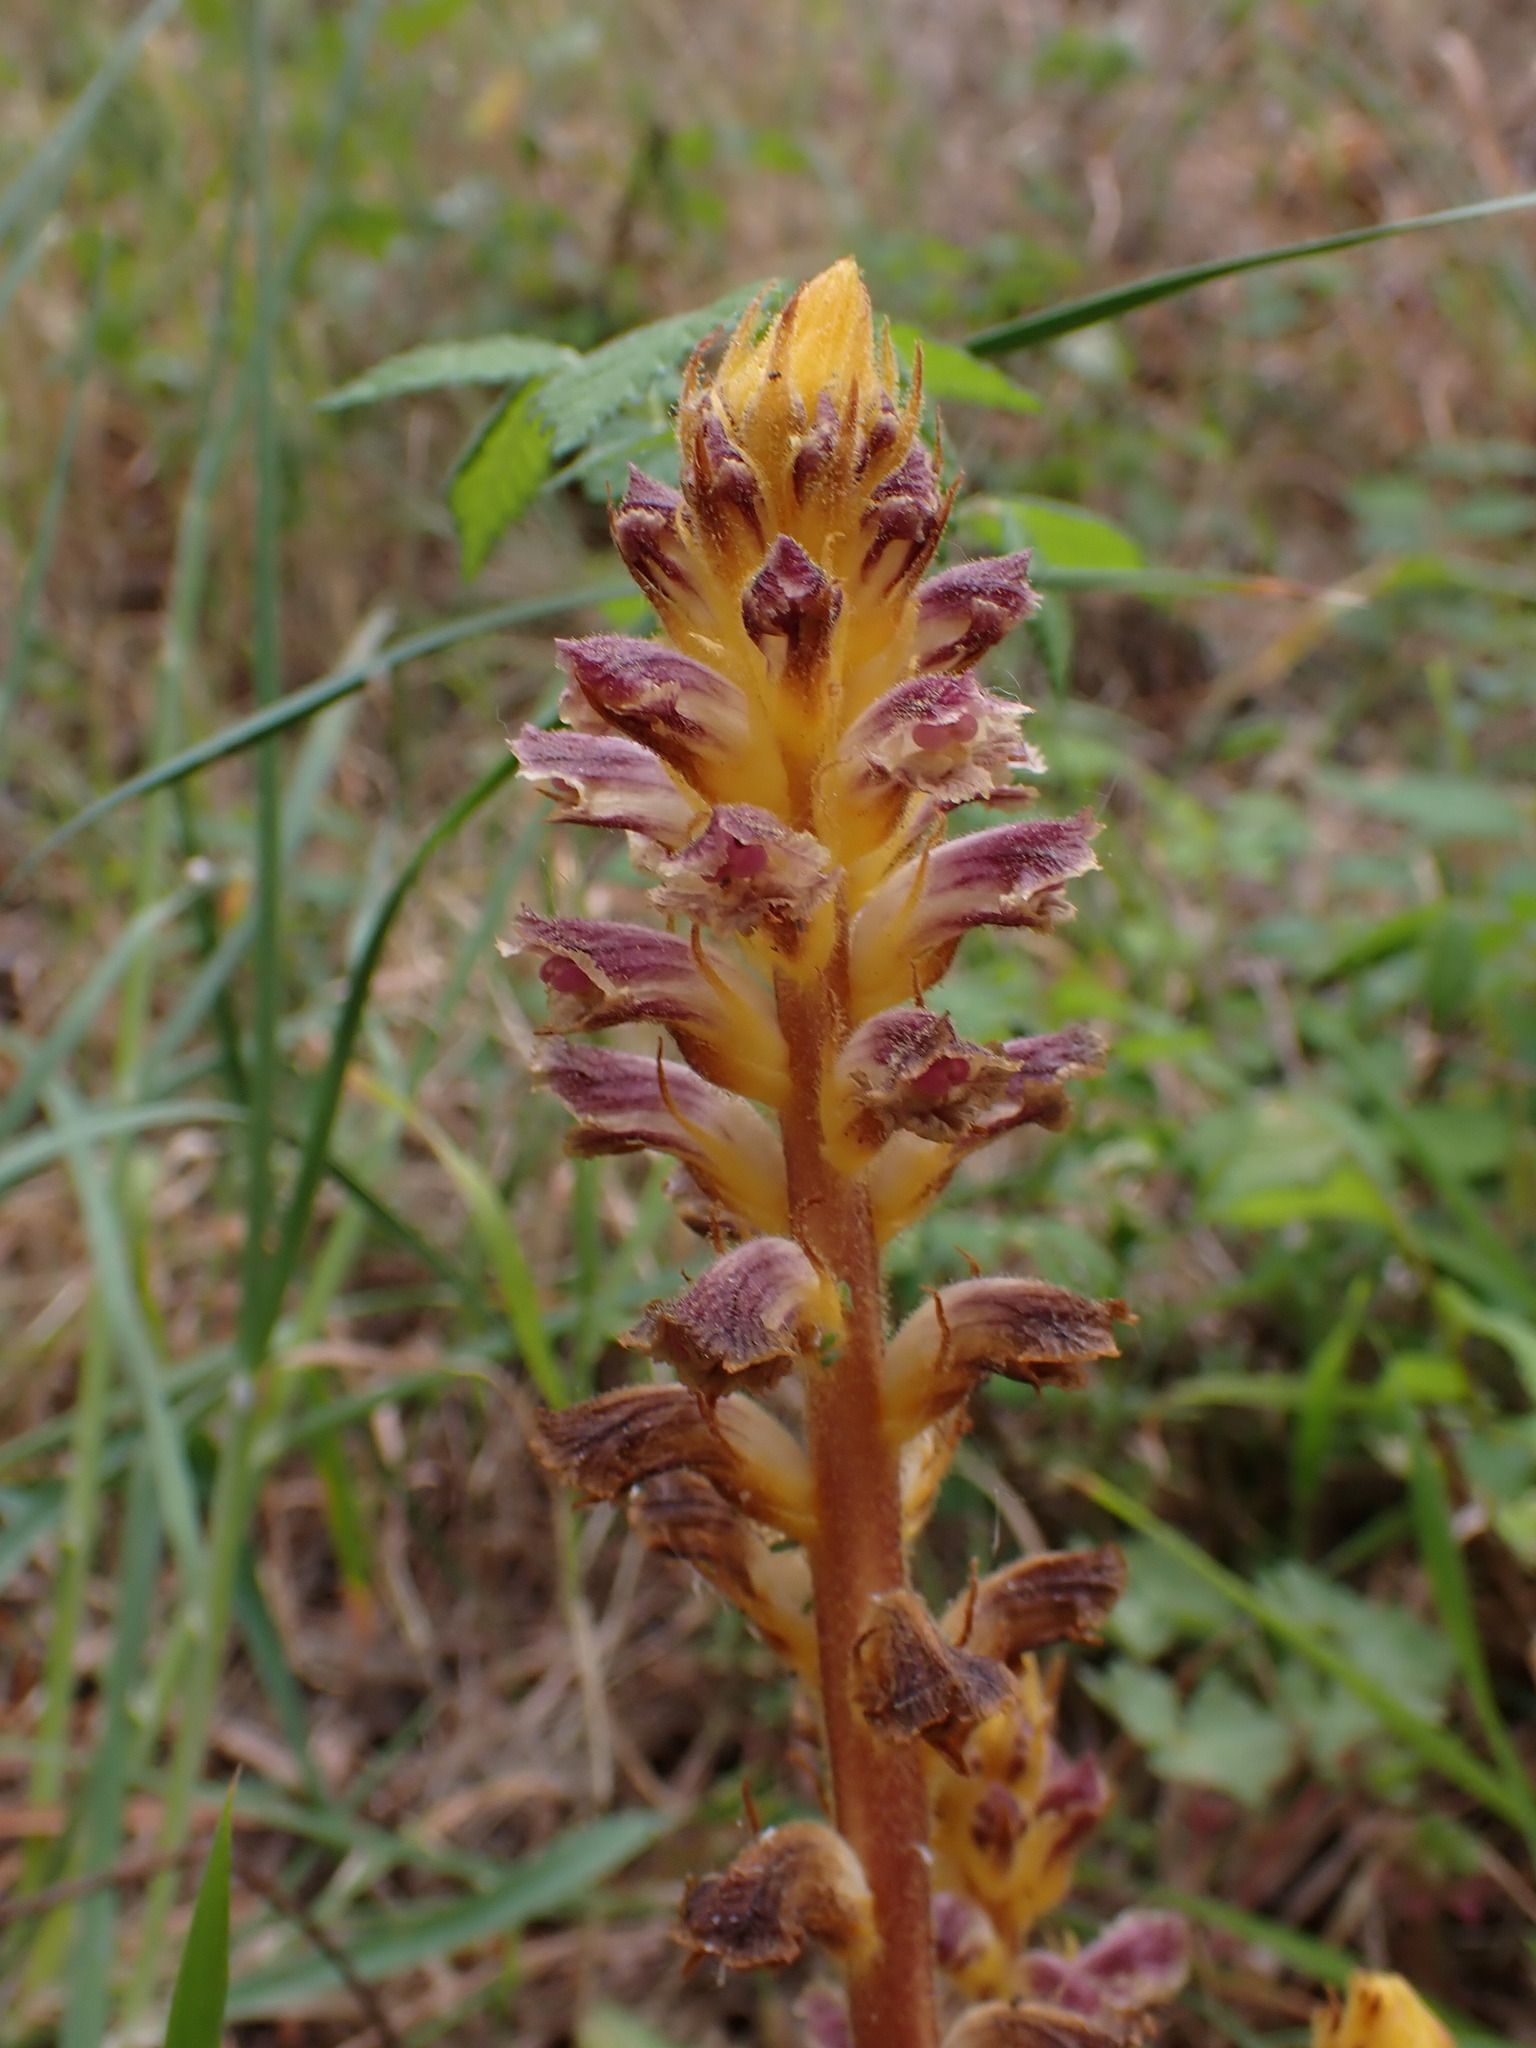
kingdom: Plantae
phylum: Tracheophyta
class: Magnoliopsida
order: Lamiales
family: Orobanchaceae
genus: Orobanche
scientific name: Orobanche minor
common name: Common broomrape
